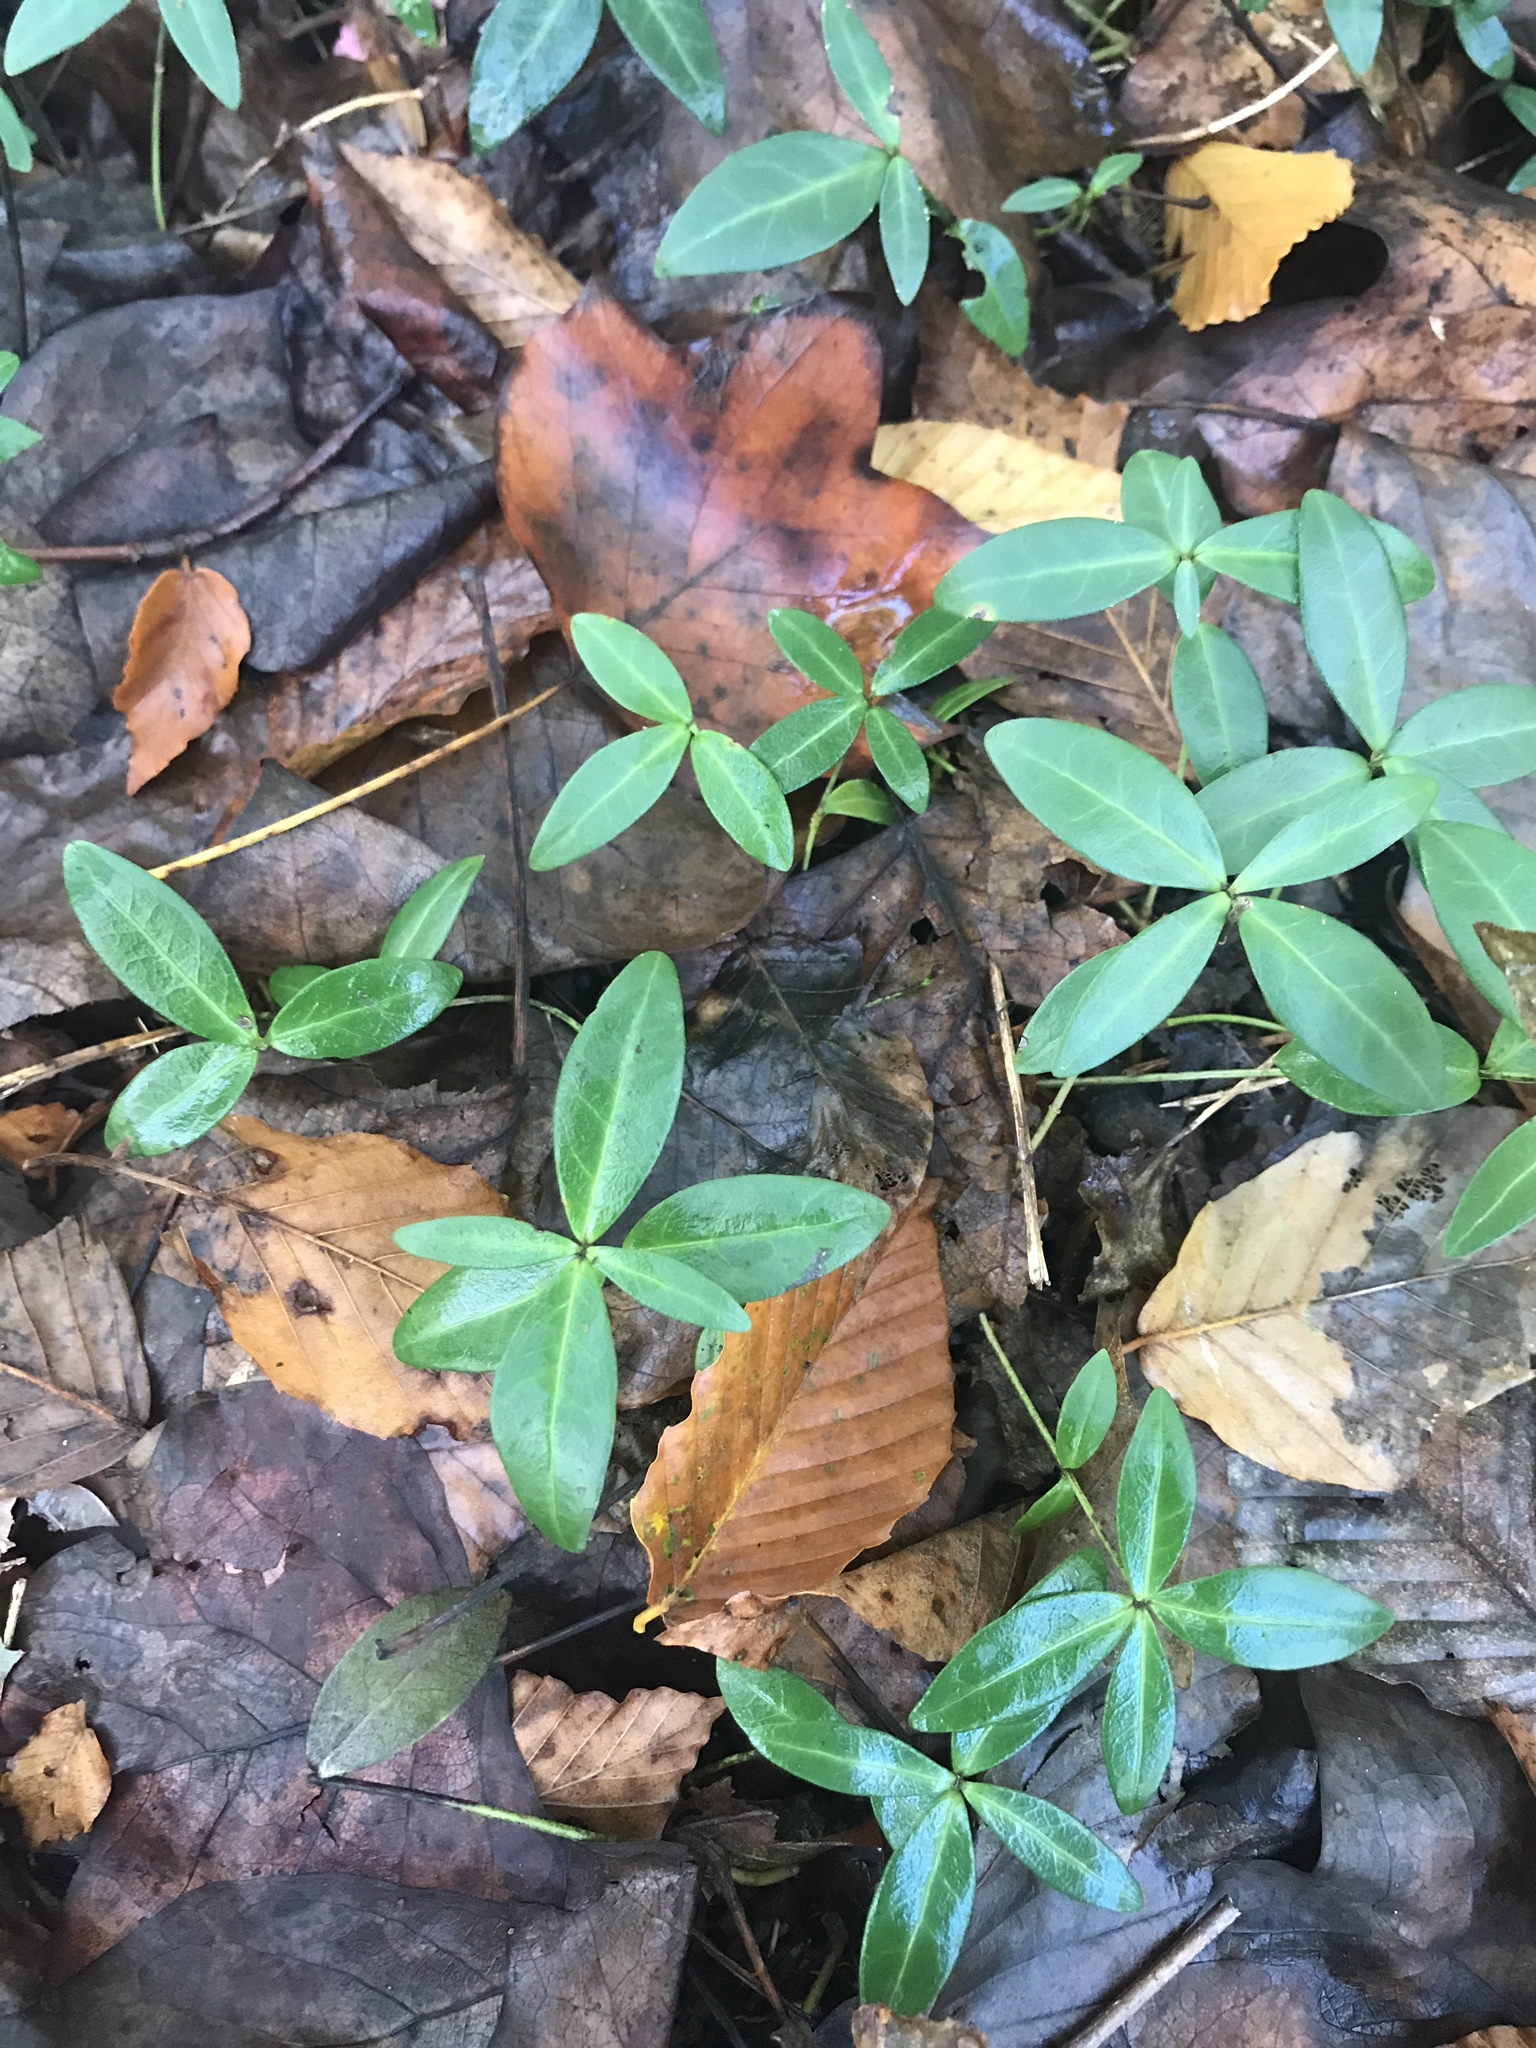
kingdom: Plantae
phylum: Tracheophyta
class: Magnoliopsida
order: Gentianales
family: Apocynaceae
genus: Vinca
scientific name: Vinca minor
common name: Lesser periwinkle
